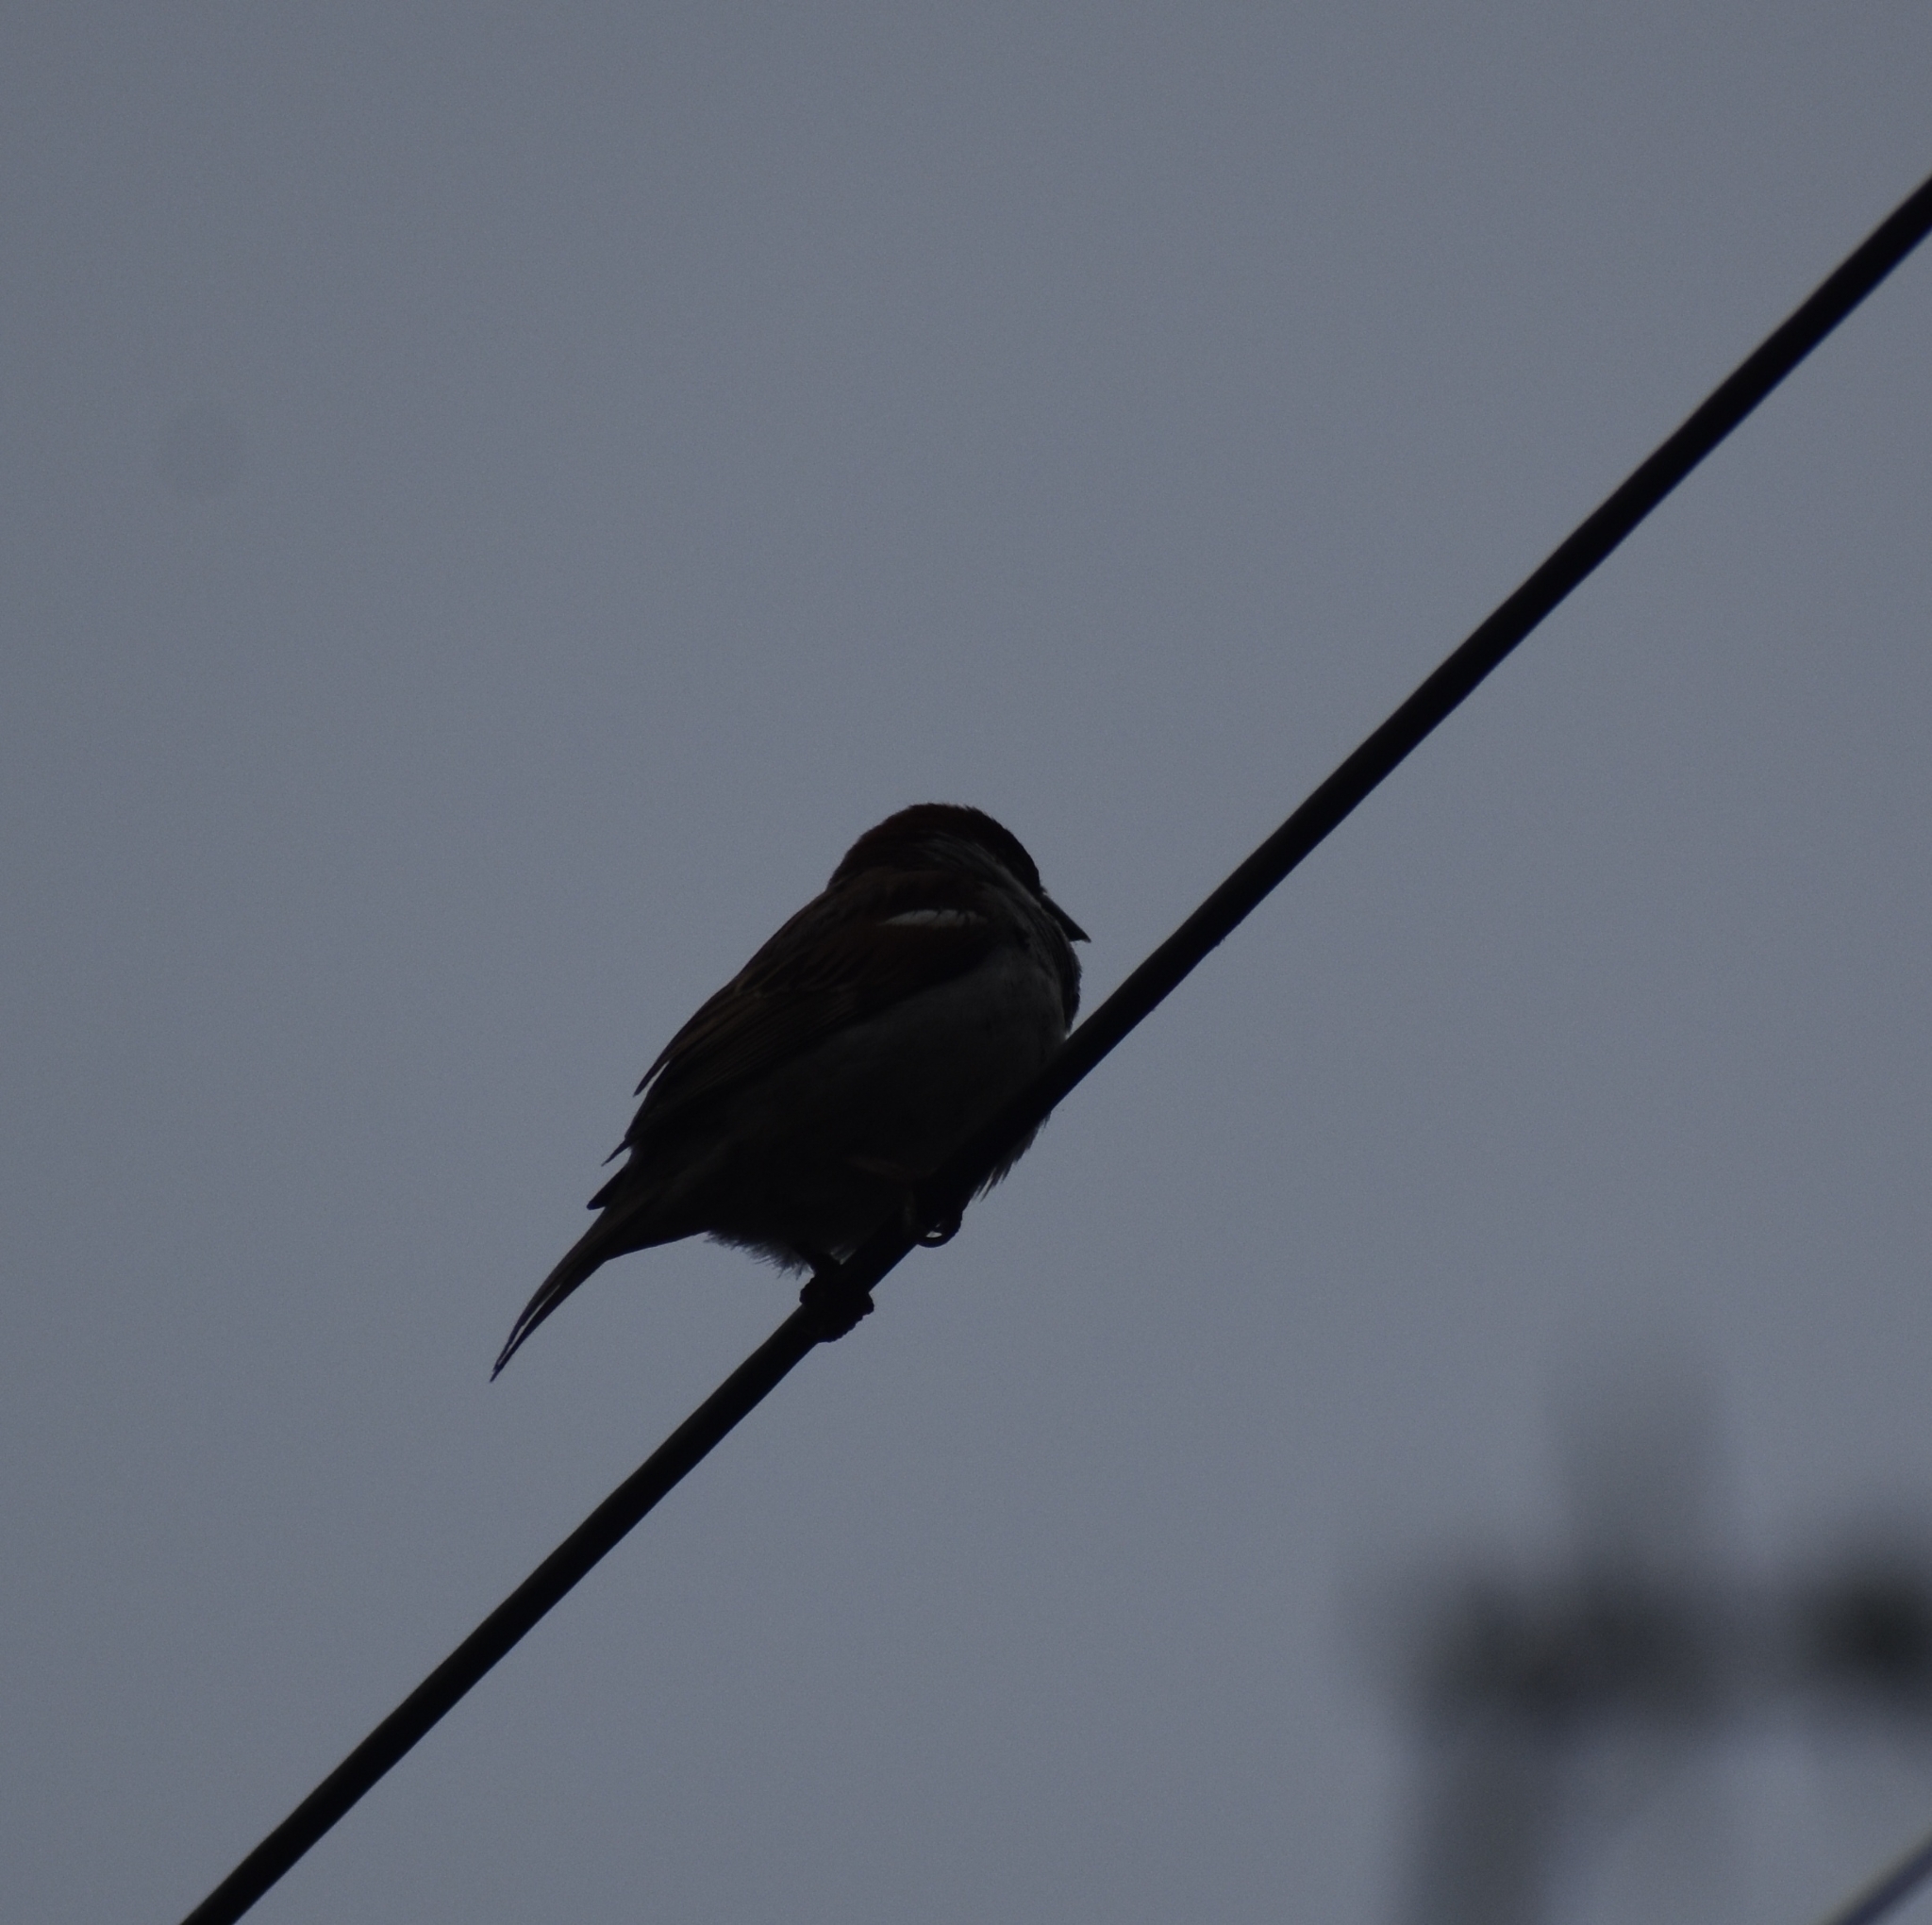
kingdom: Animalia
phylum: Chordata
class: Aves
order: Passeriformes
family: Passeridae
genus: Passer
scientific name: Passer domesticus
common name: House sparrow
